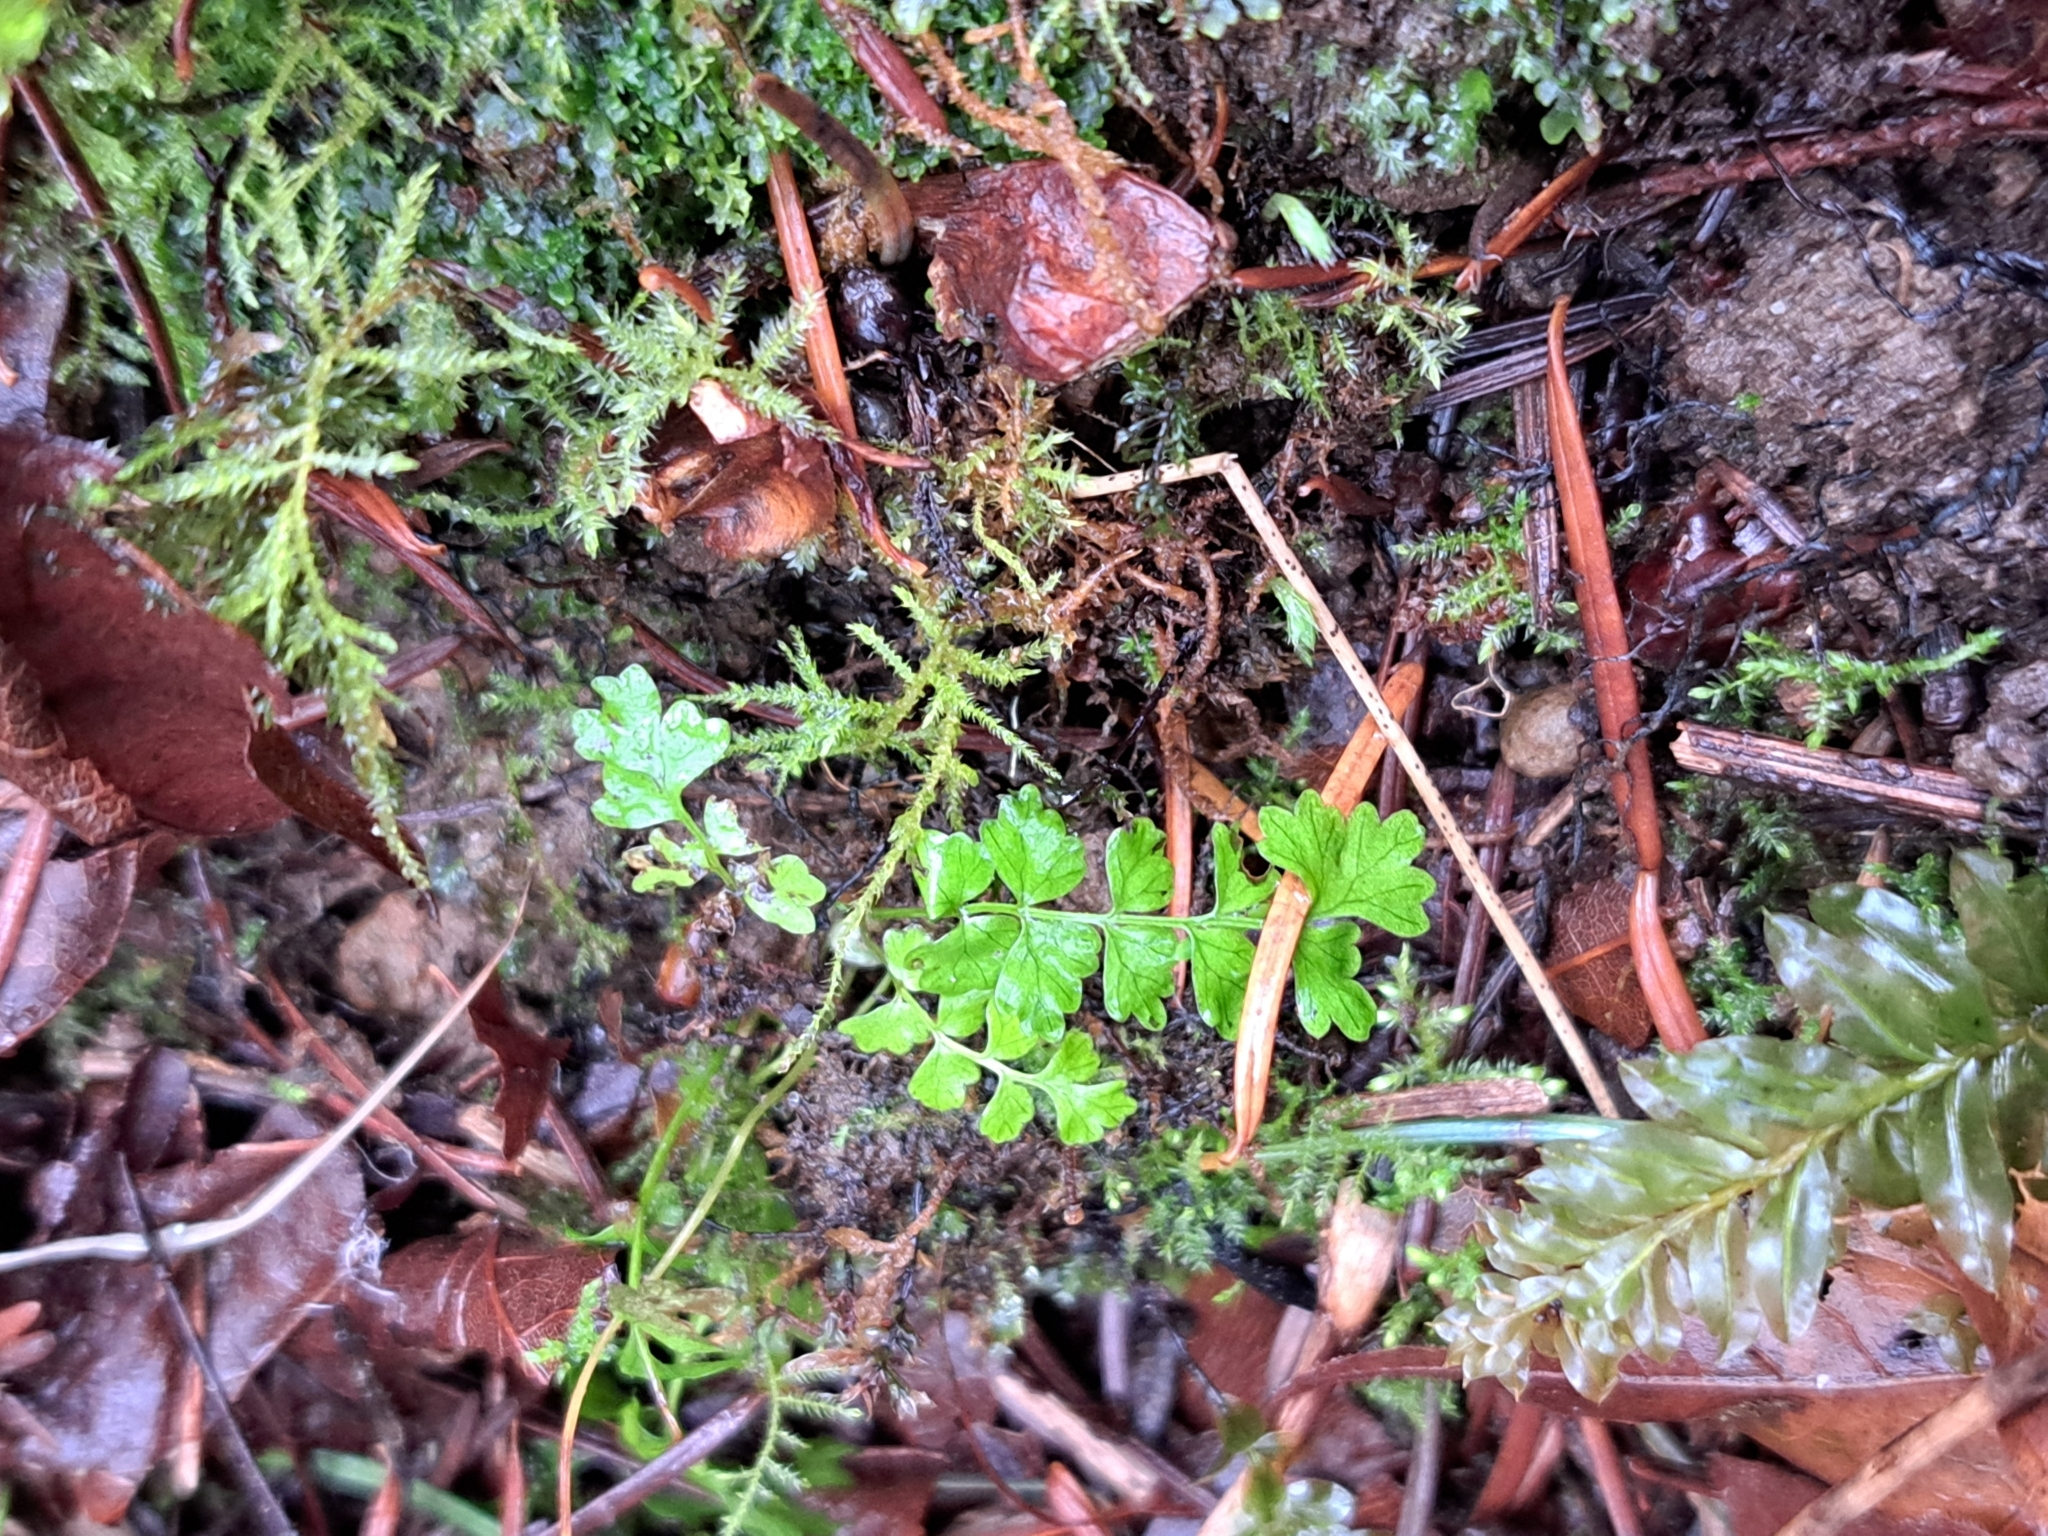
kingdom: Plantae
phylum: Tracheophyta
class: Polypodiopsida
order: Polypodiales
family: Pteridaceae
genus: Adiantum
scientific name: Adiantum aleuticum
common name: Aleutian maidenhair fern
